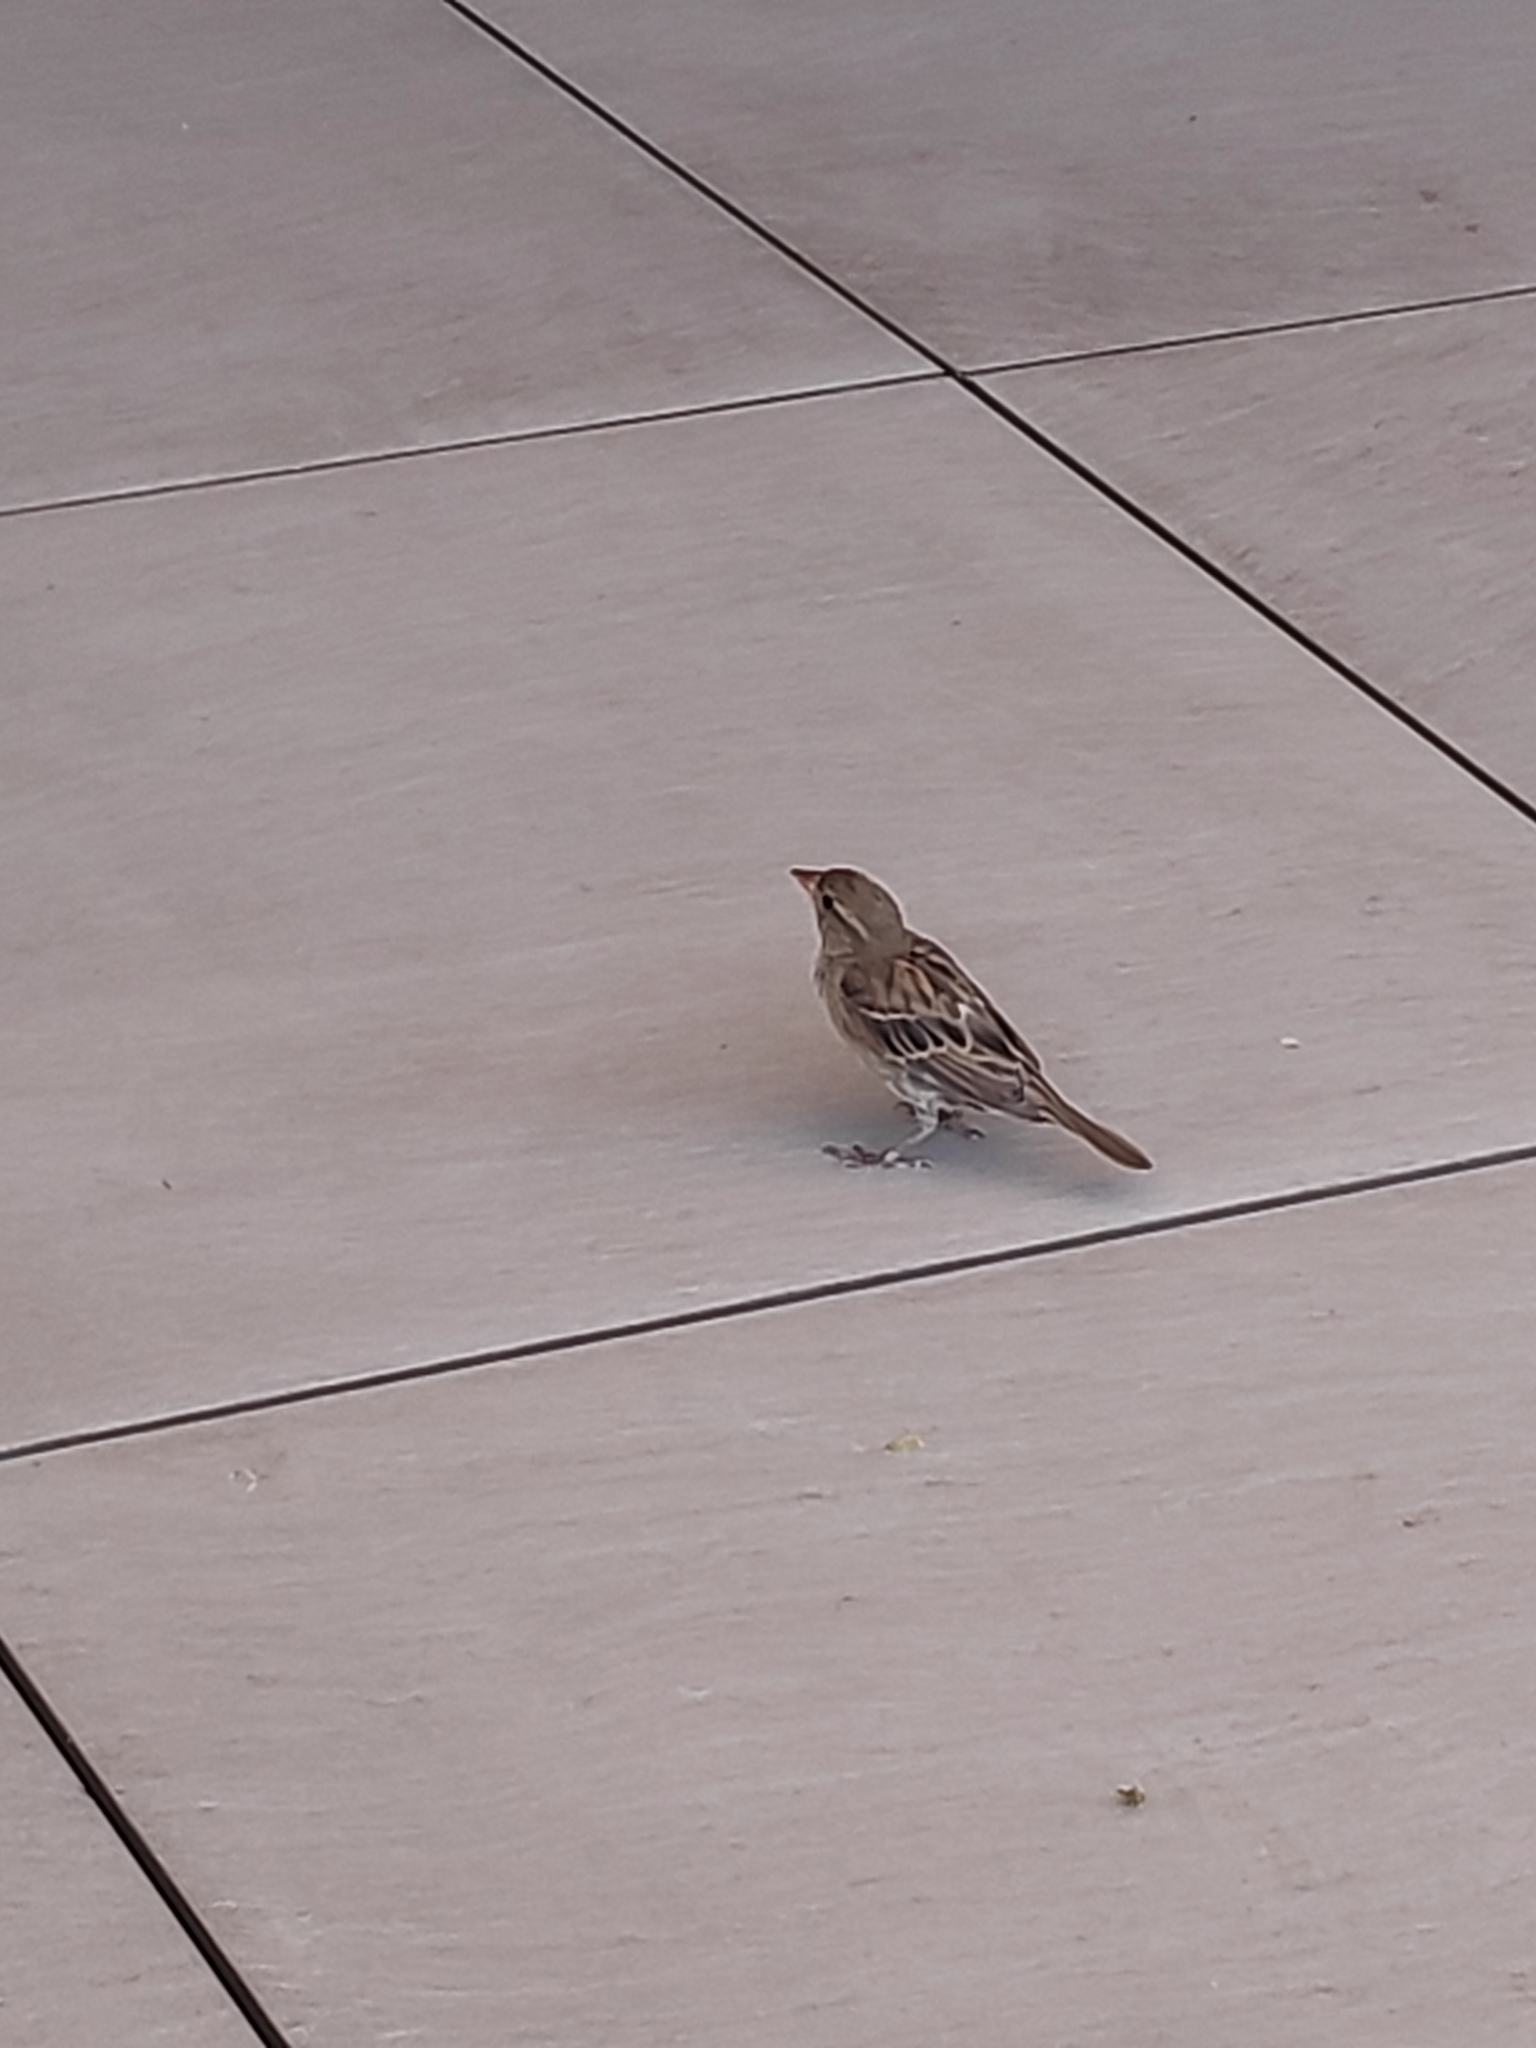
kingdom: Animalia
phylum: Chordata
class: Aves
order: Passeriformes
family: Passeridae
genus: Passer
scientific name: Passer hispaniolensis
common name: Spanish sparrow
